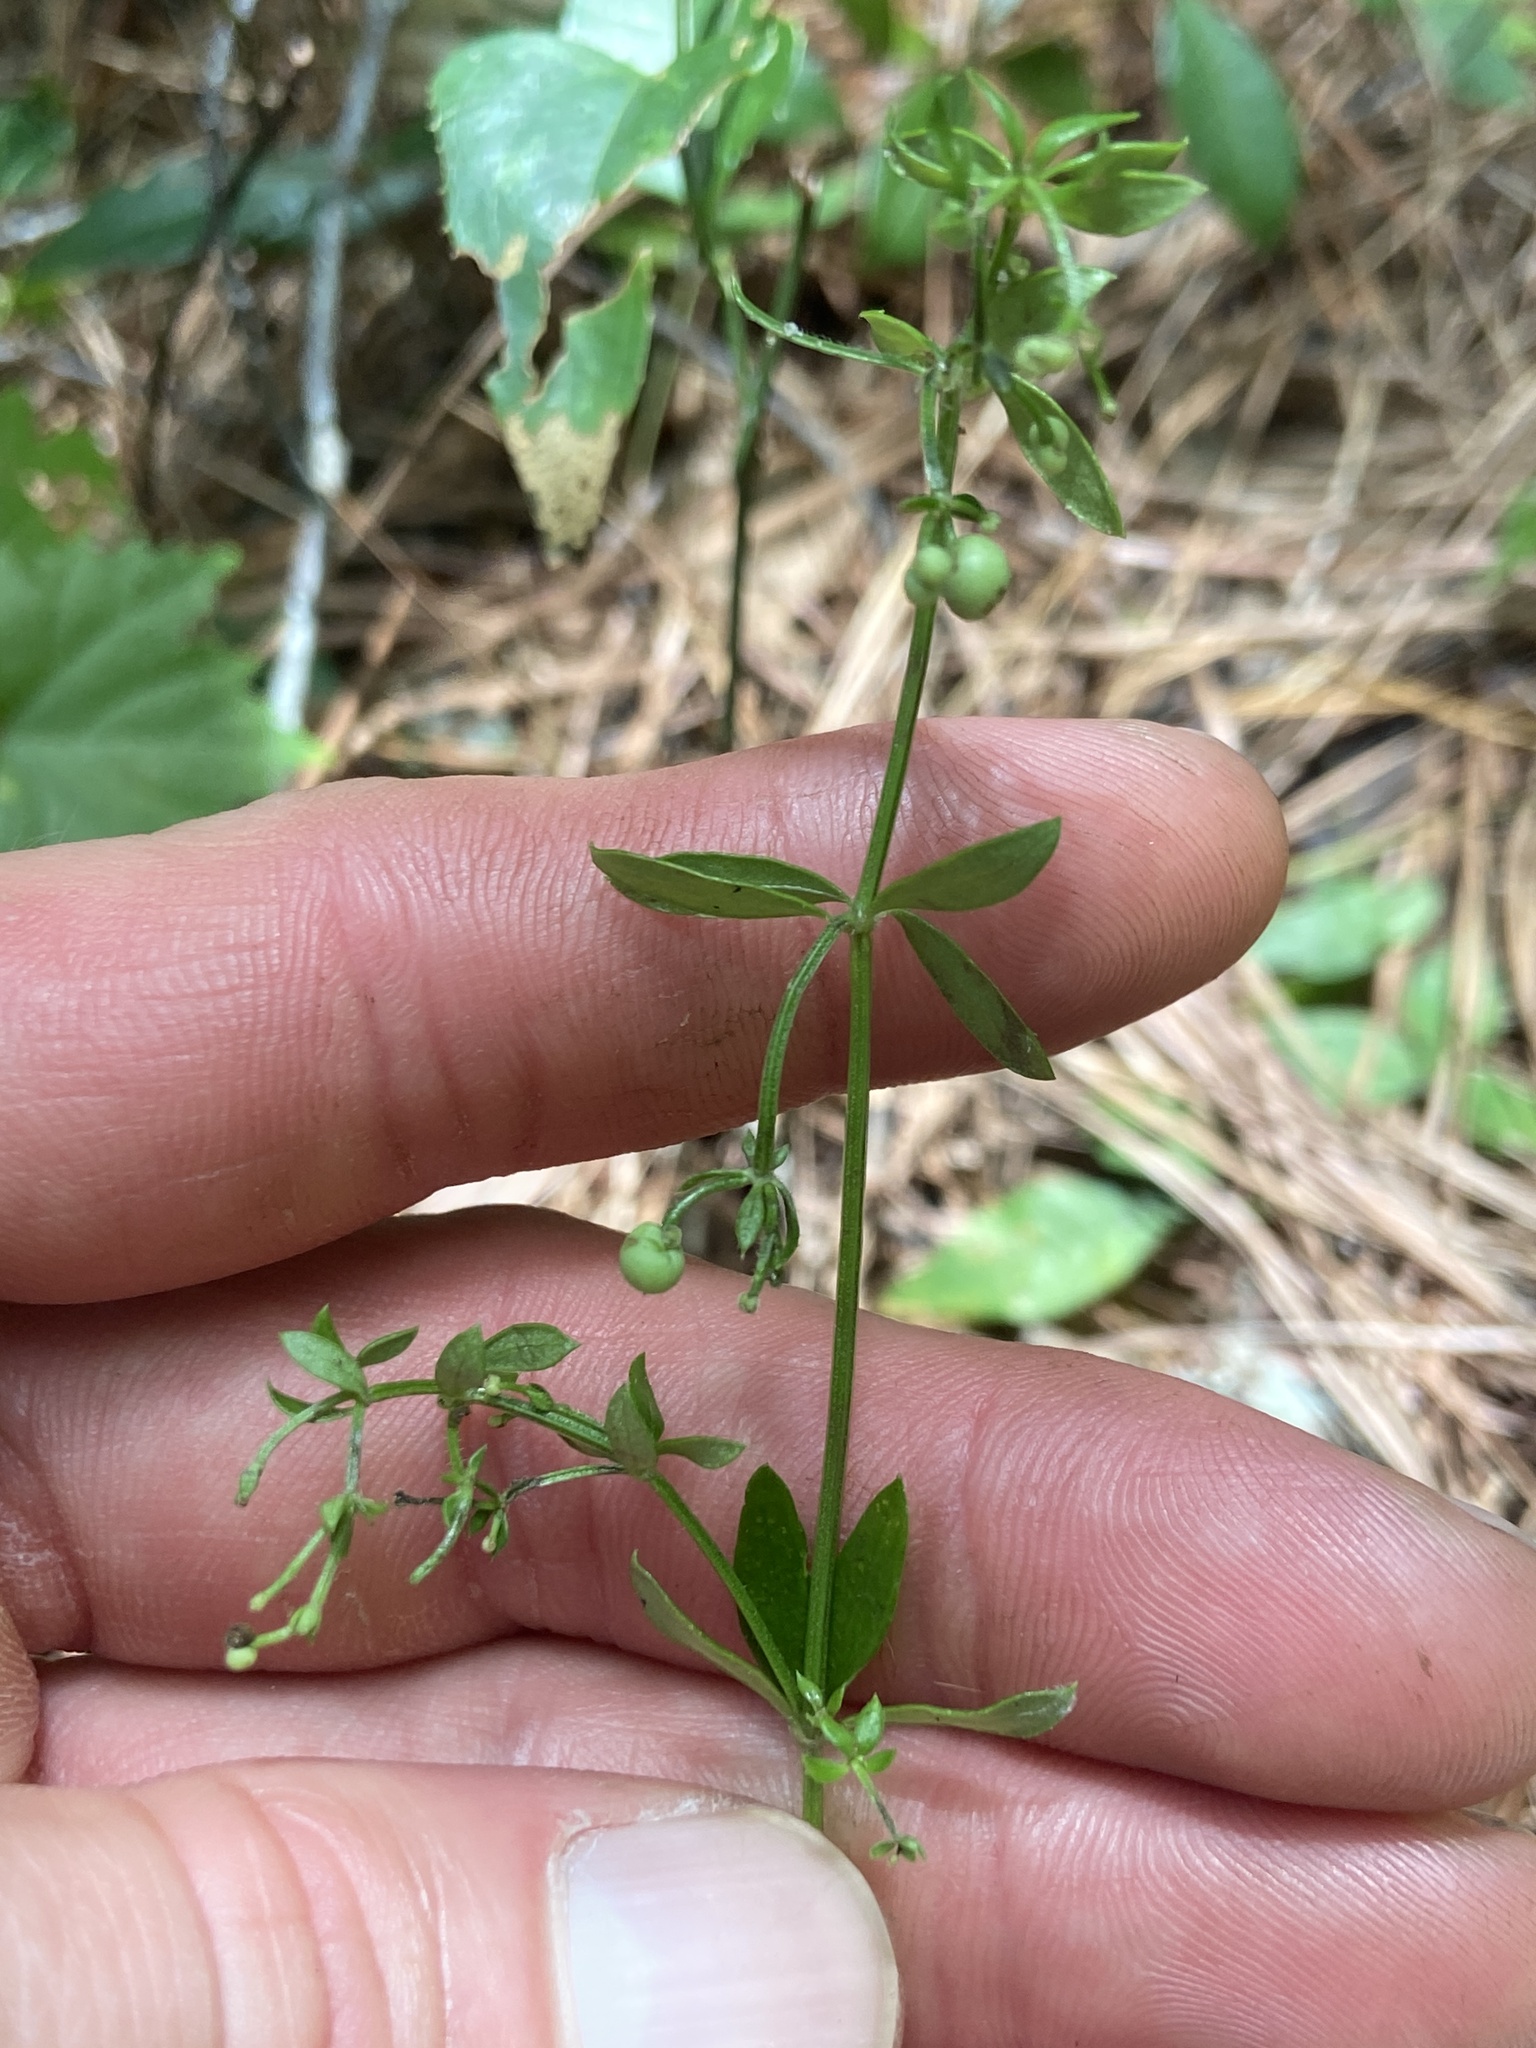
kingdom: Plantae
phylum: Tracheophyta
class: Magnoliopsida
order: Gentianales
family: Rubiaceae
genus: Galium
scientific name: Galium bermudense
